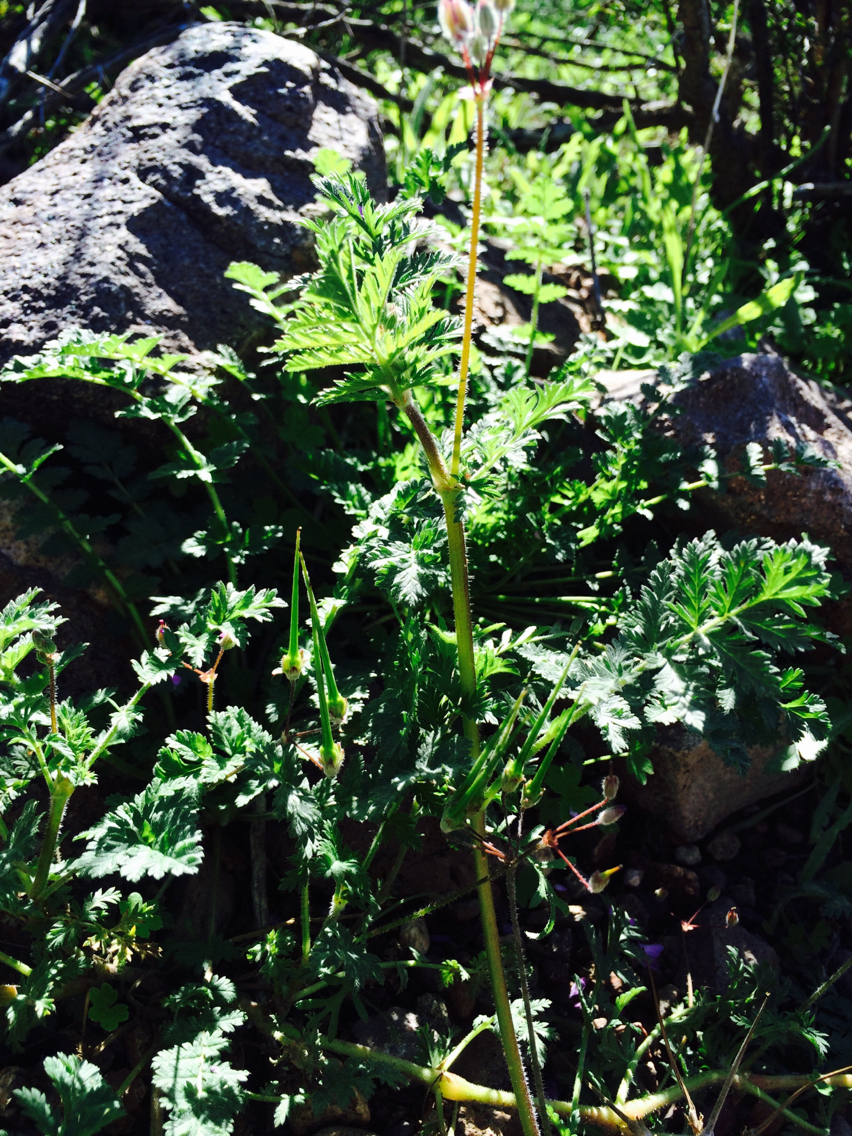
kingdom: Plantae
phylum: Tracheophyta
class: Magnoliopsida
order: Geraniales
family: Geraniaceae
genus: Erodium
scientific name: Erodium cicutarium
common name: Common stork's-bill
